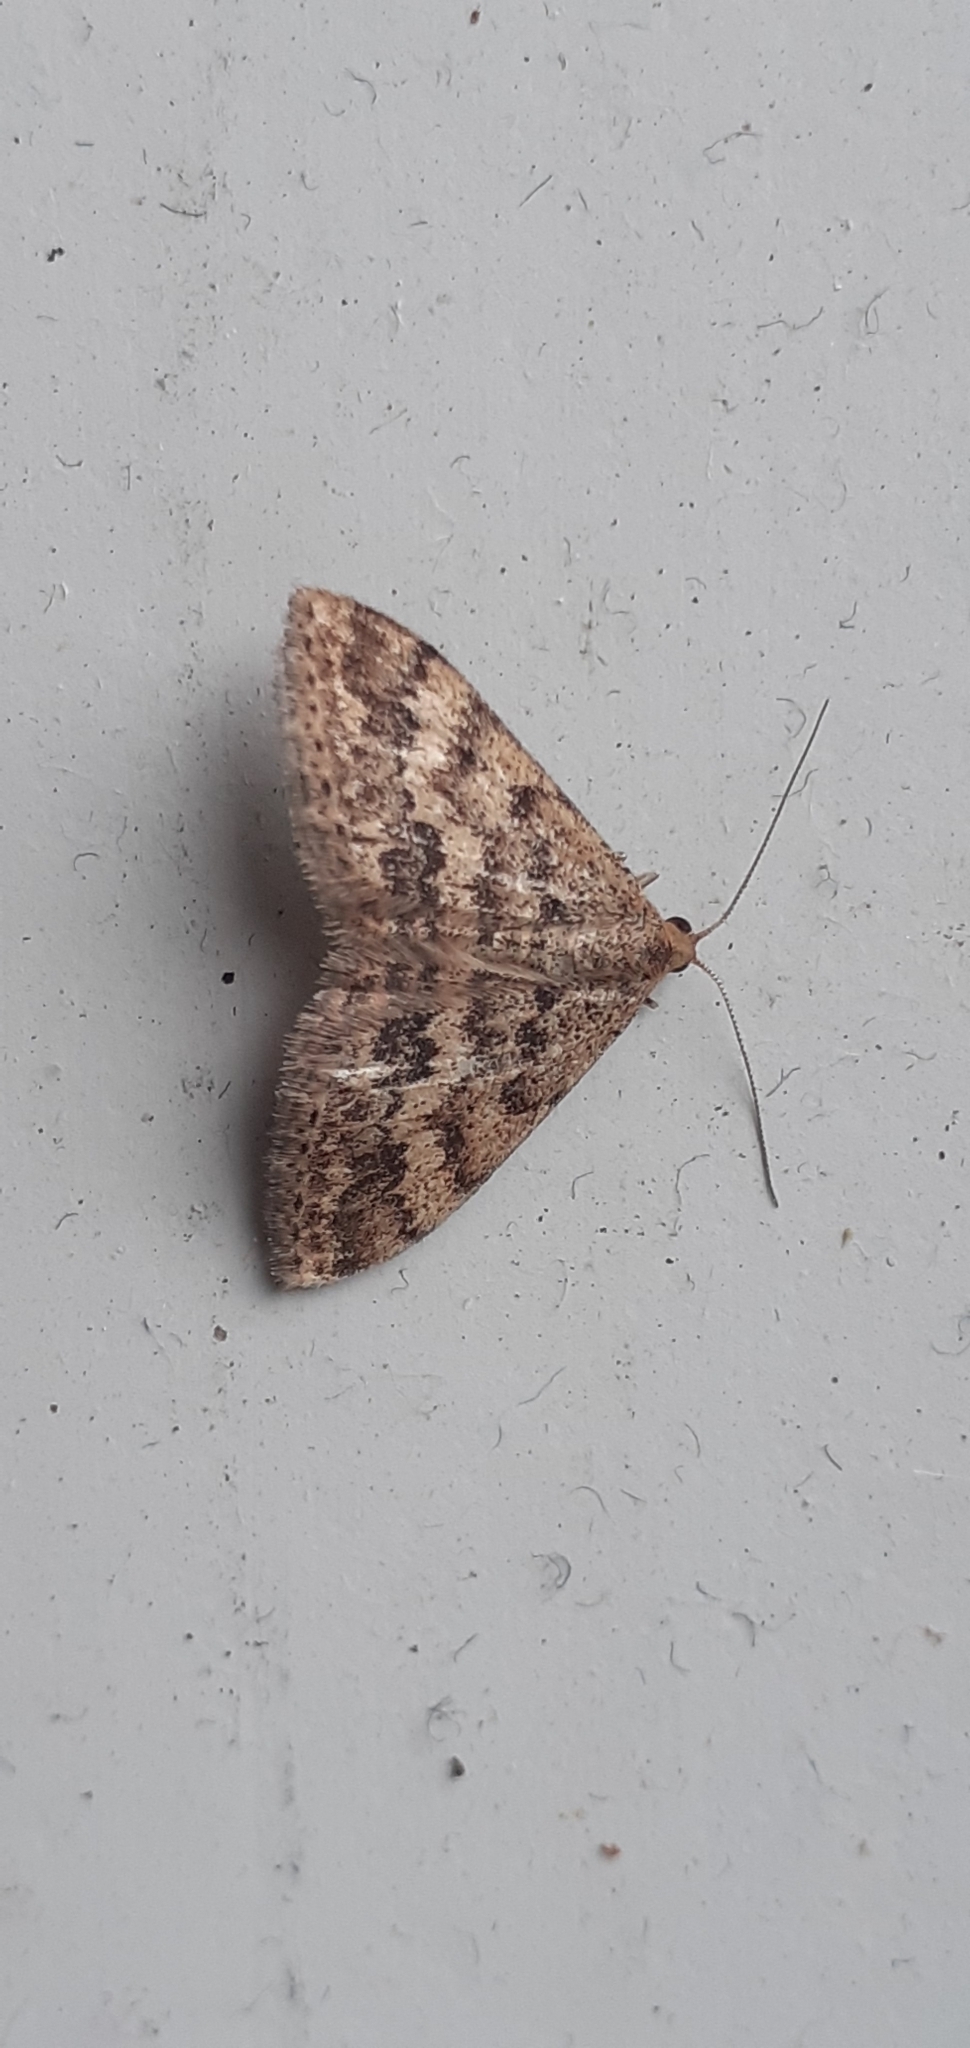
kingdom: Animalia
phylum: Arthropoda
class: Insecta
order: Lepidoptera
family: Geometridae
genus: Scopula
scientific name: Scopula rubraria
